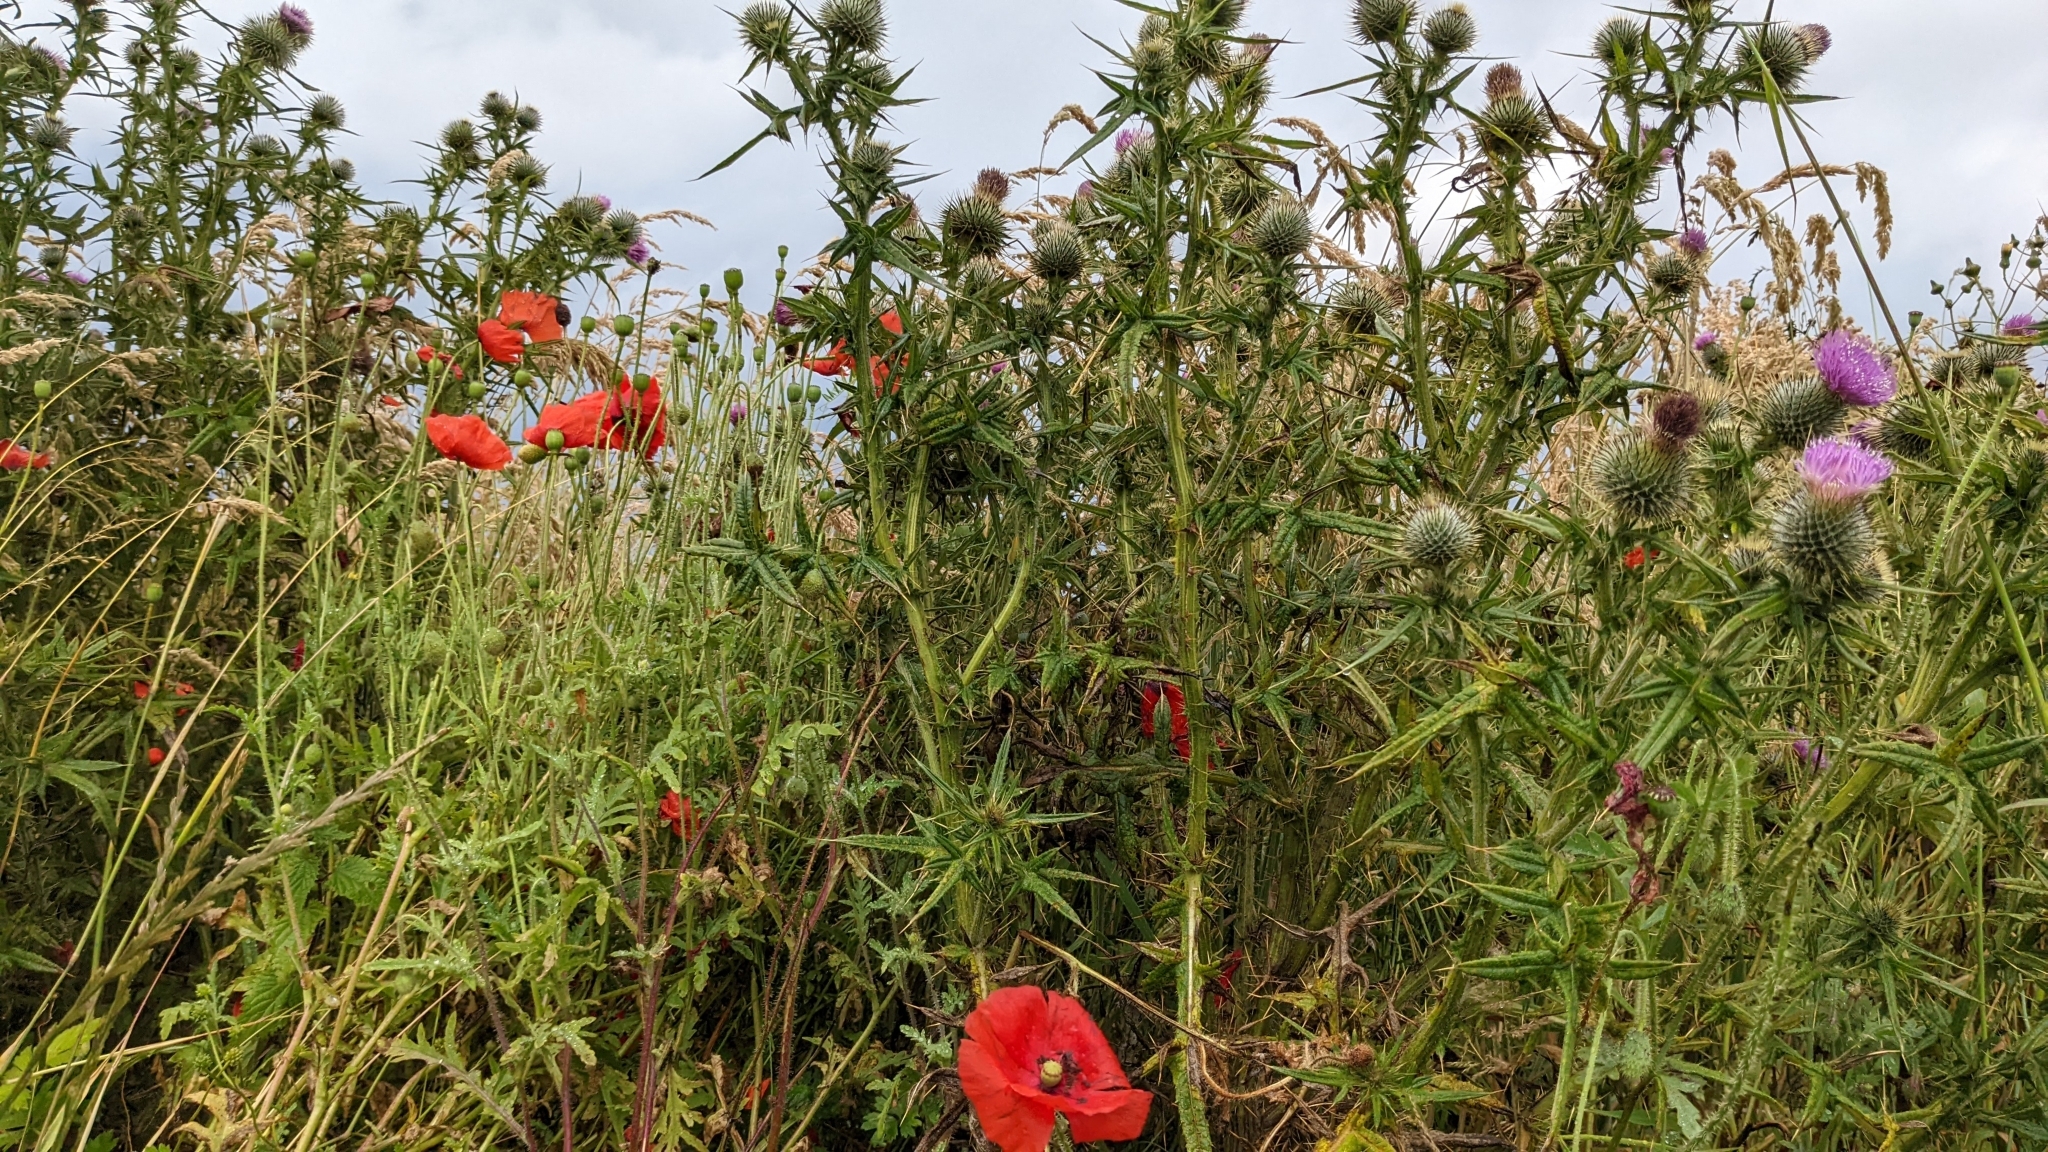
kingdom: Plantae
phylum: Tracheophyta
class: Magnoliopsida
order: Ranunculales
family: Papaveraceae
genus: Papaver
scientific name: Papaver rhoeas
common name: Corn poppy
